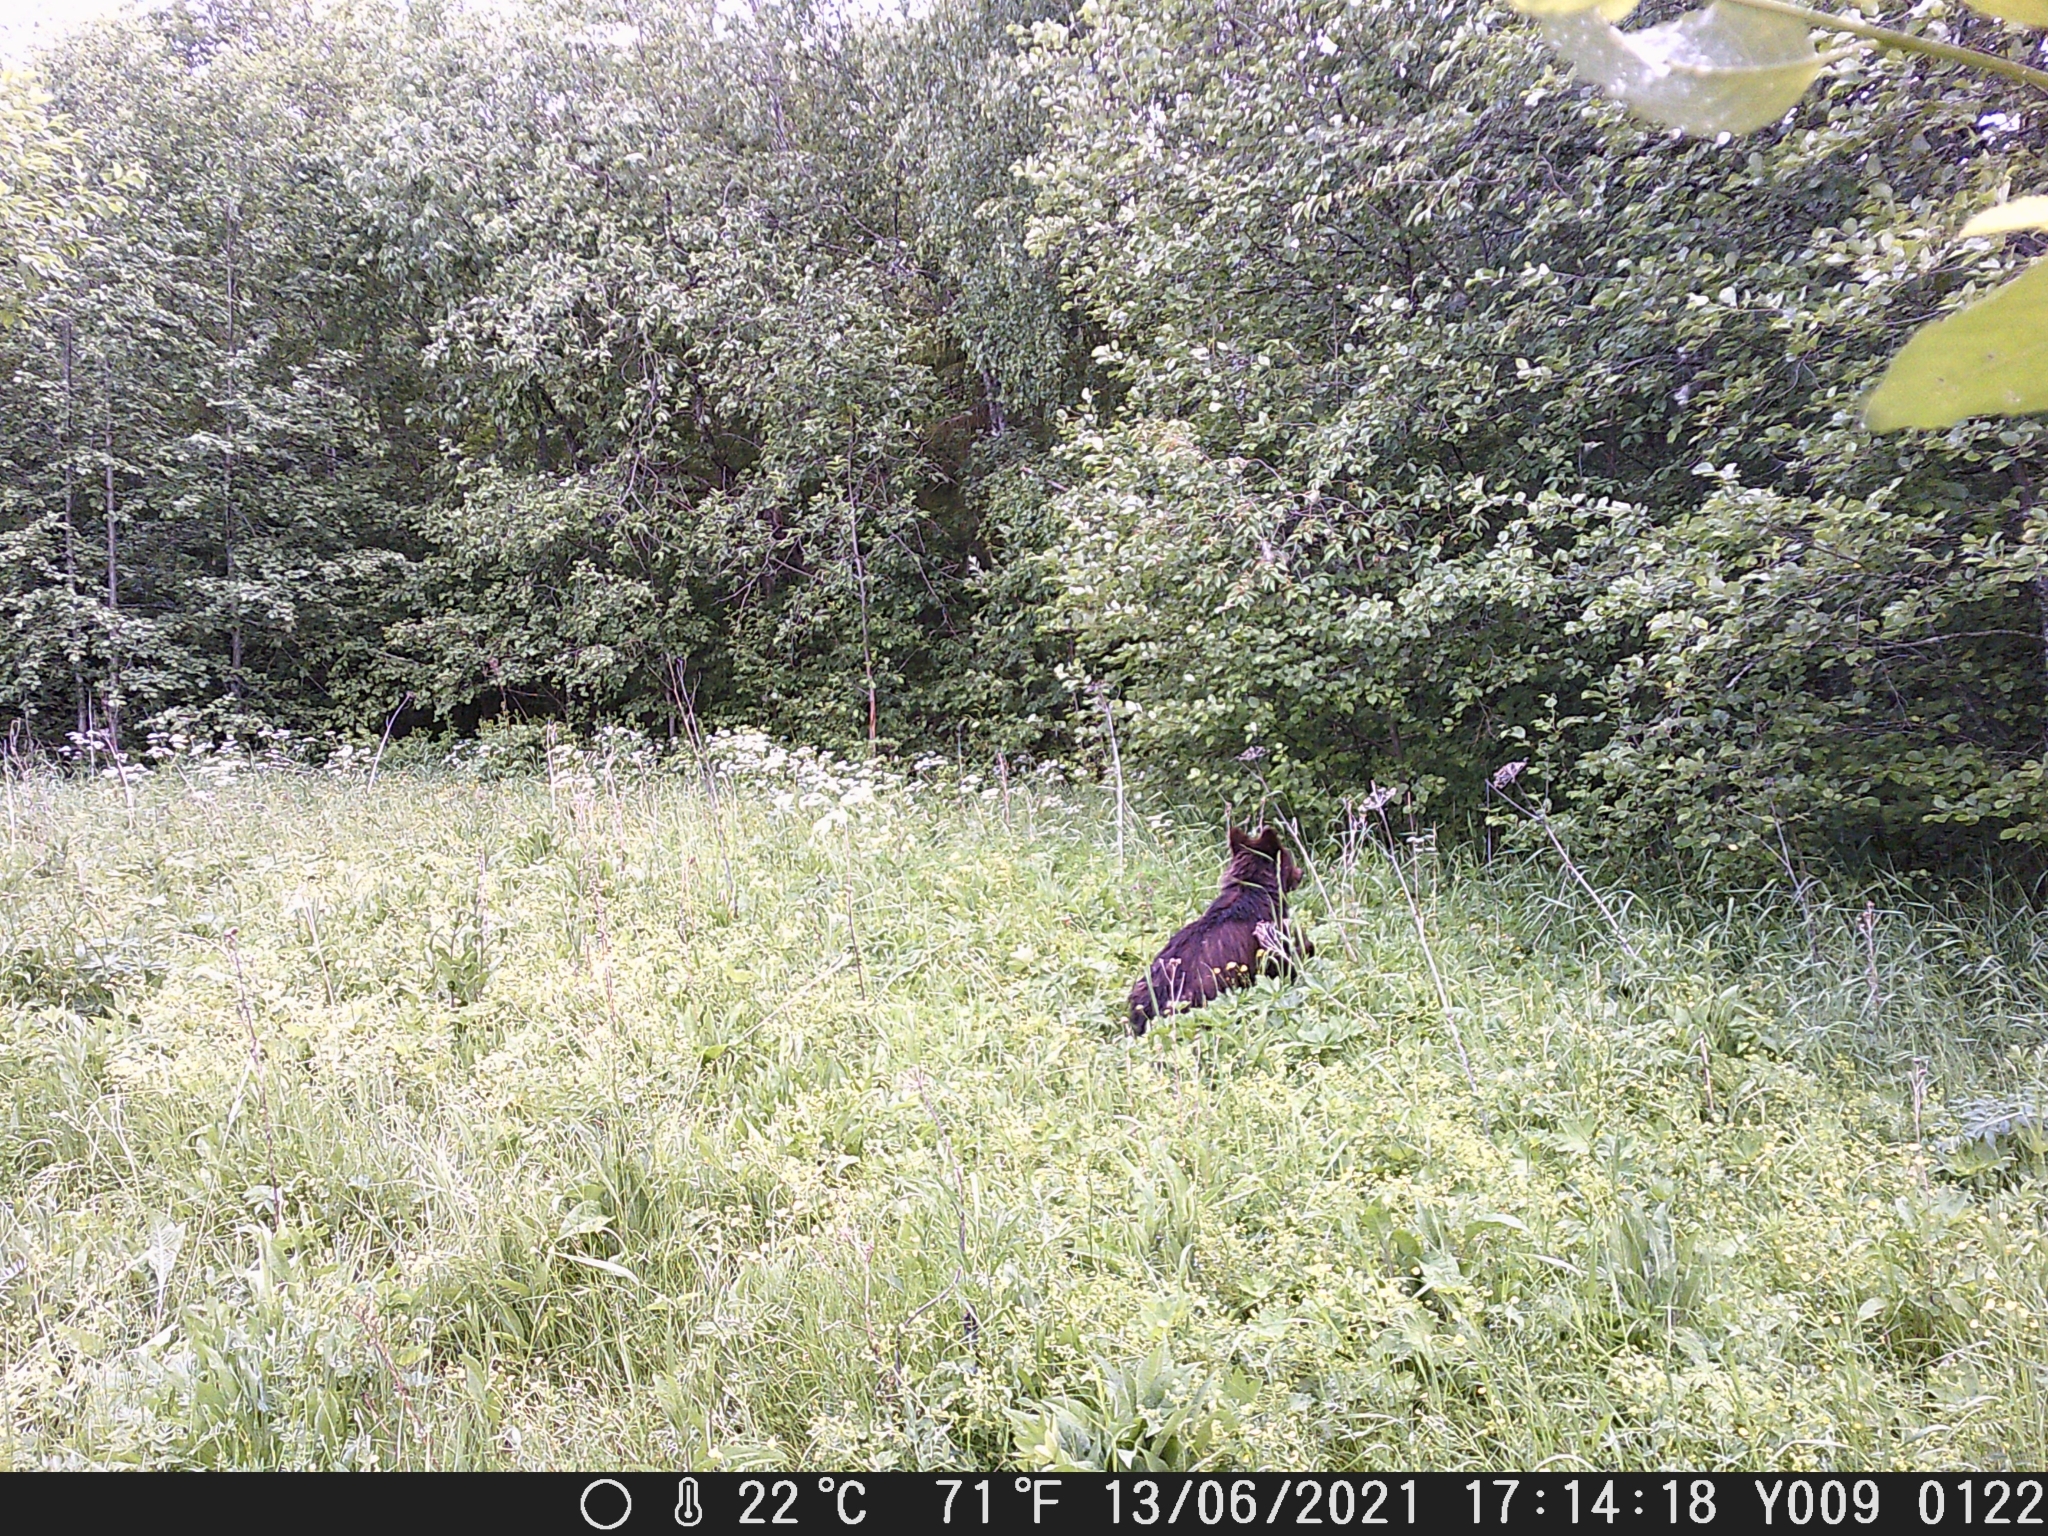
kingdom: Animalia
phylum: Chordata
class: Mammalia
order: Carnivora
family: Ursidae
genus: Ursus
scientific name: Ursus arctos
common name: Brown bear
